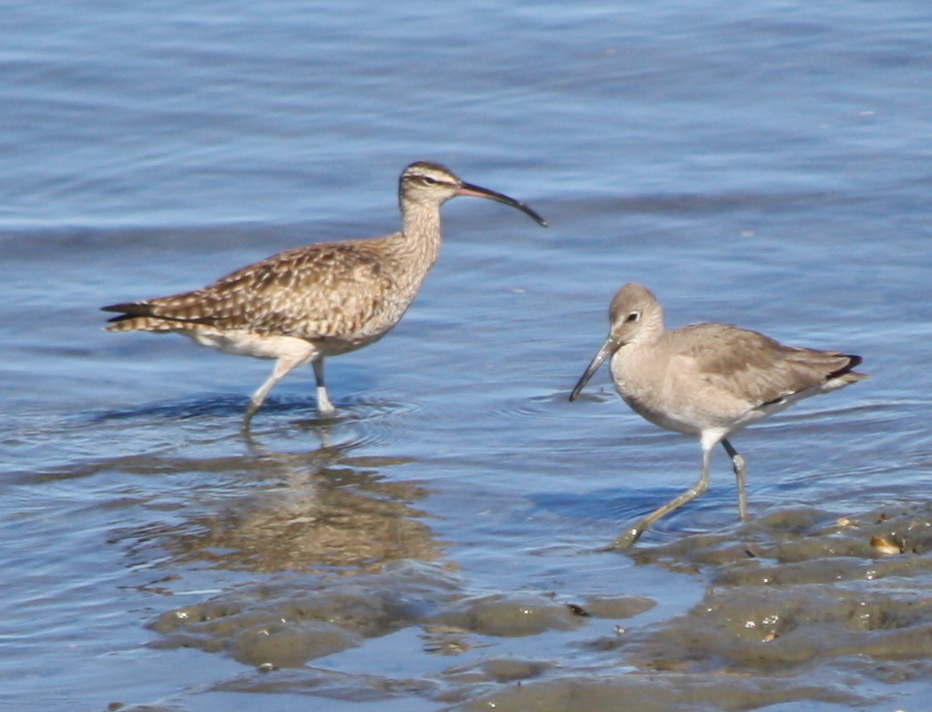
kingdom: Animalia
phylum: Chordata
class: Aves
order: Charadriiformes
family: Scolopacidae
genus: Numenius
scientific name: Numenius phaeopus
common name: Whimbrel
